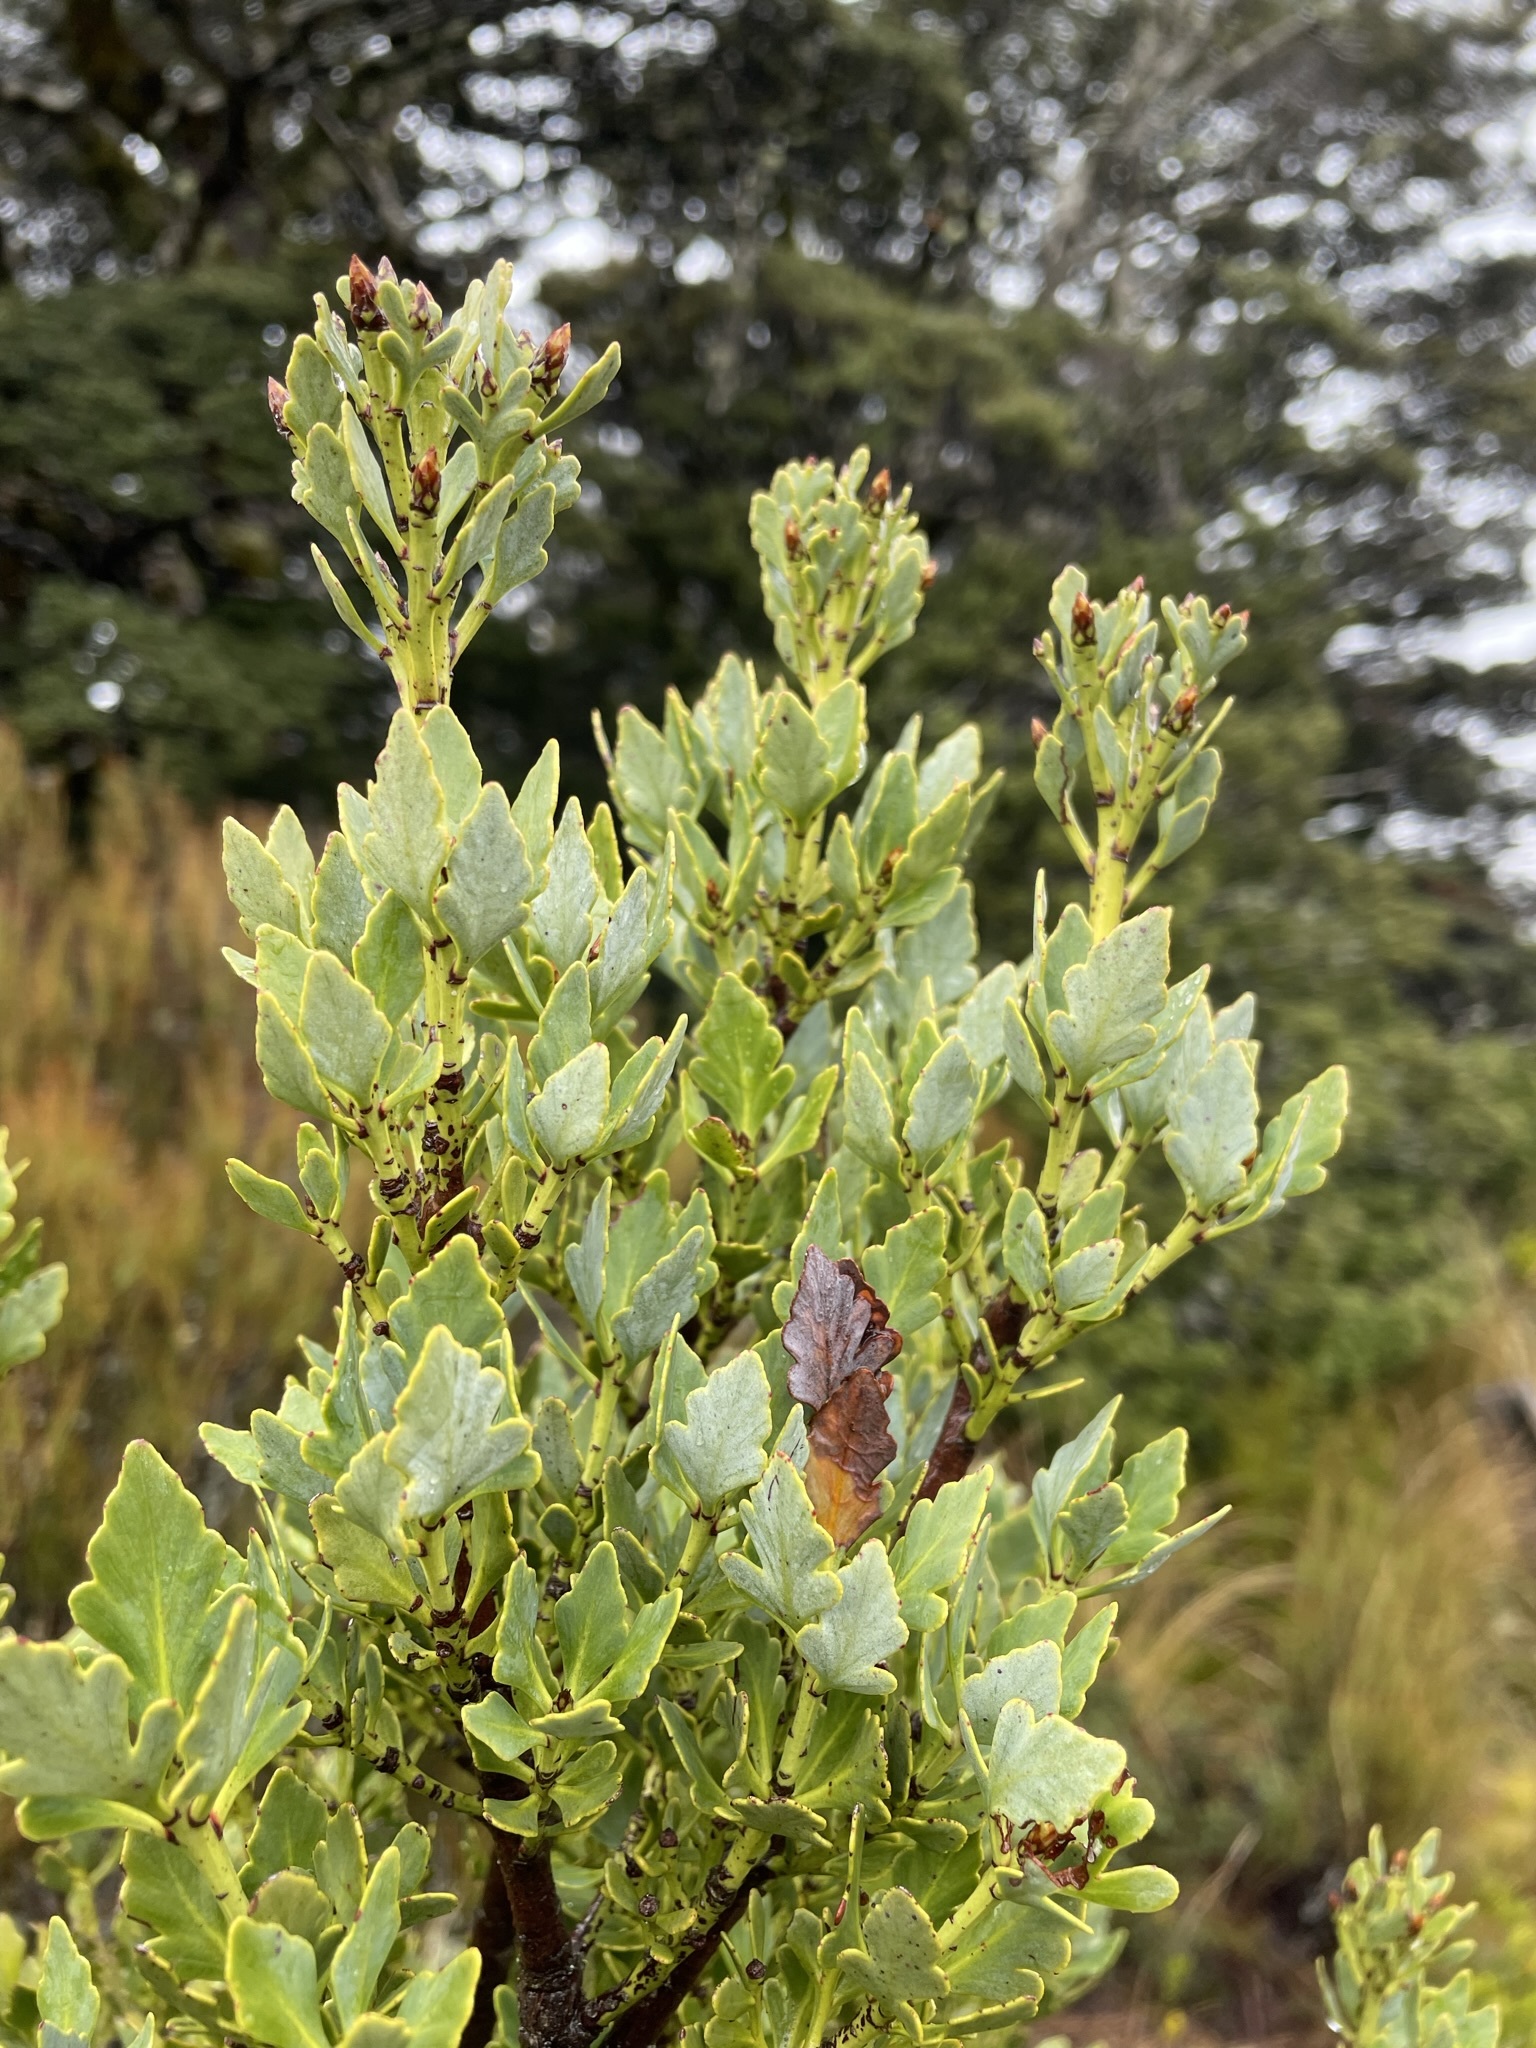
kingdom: Plantae
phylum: Tracheophyta
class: Pinopsida
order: Pinales
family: Phyllocladaceae
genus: Phyllocladus
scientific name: Phyllocladus trichomanoides
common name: Celery pine
